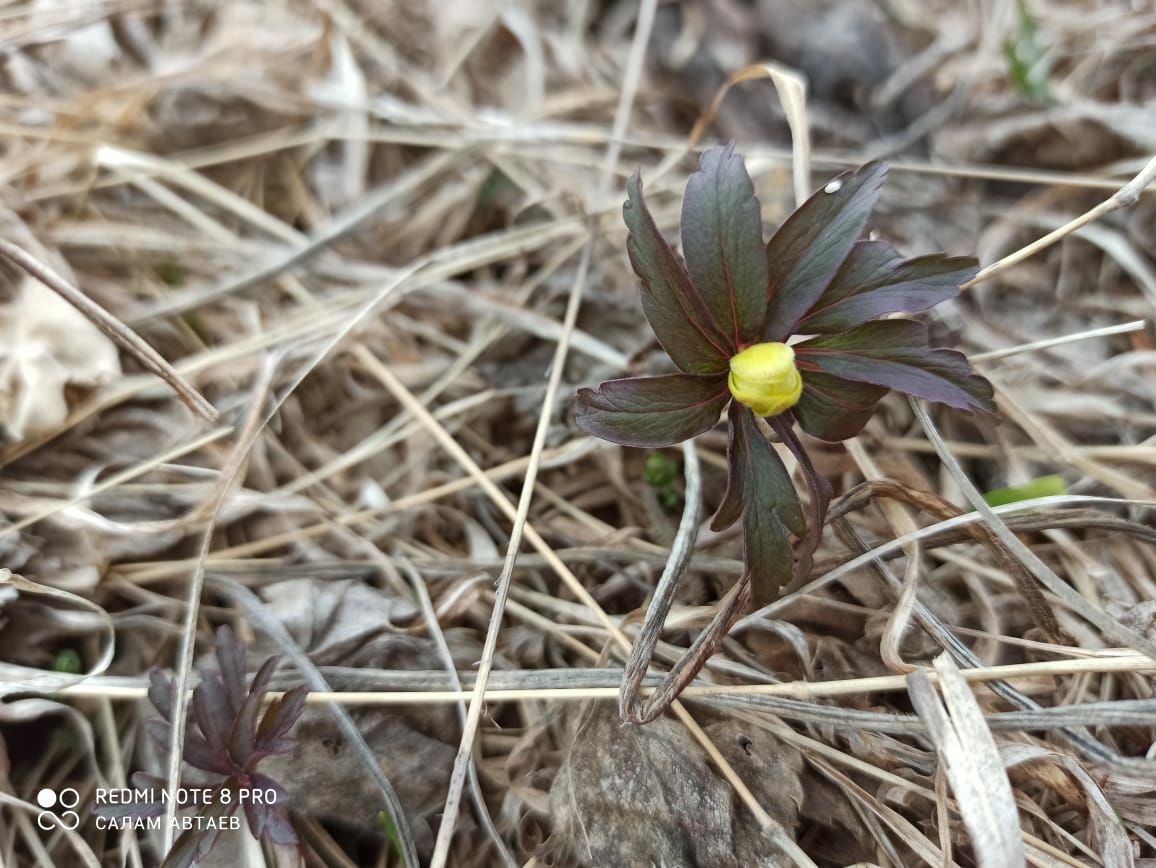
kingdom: Plantae
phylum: Tracheophyta
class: Magnoliopsida
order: Ranunculales
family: Ranunculaceae
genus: Anemone
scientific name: Anemone ranunculoides
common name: Yellow anemone
